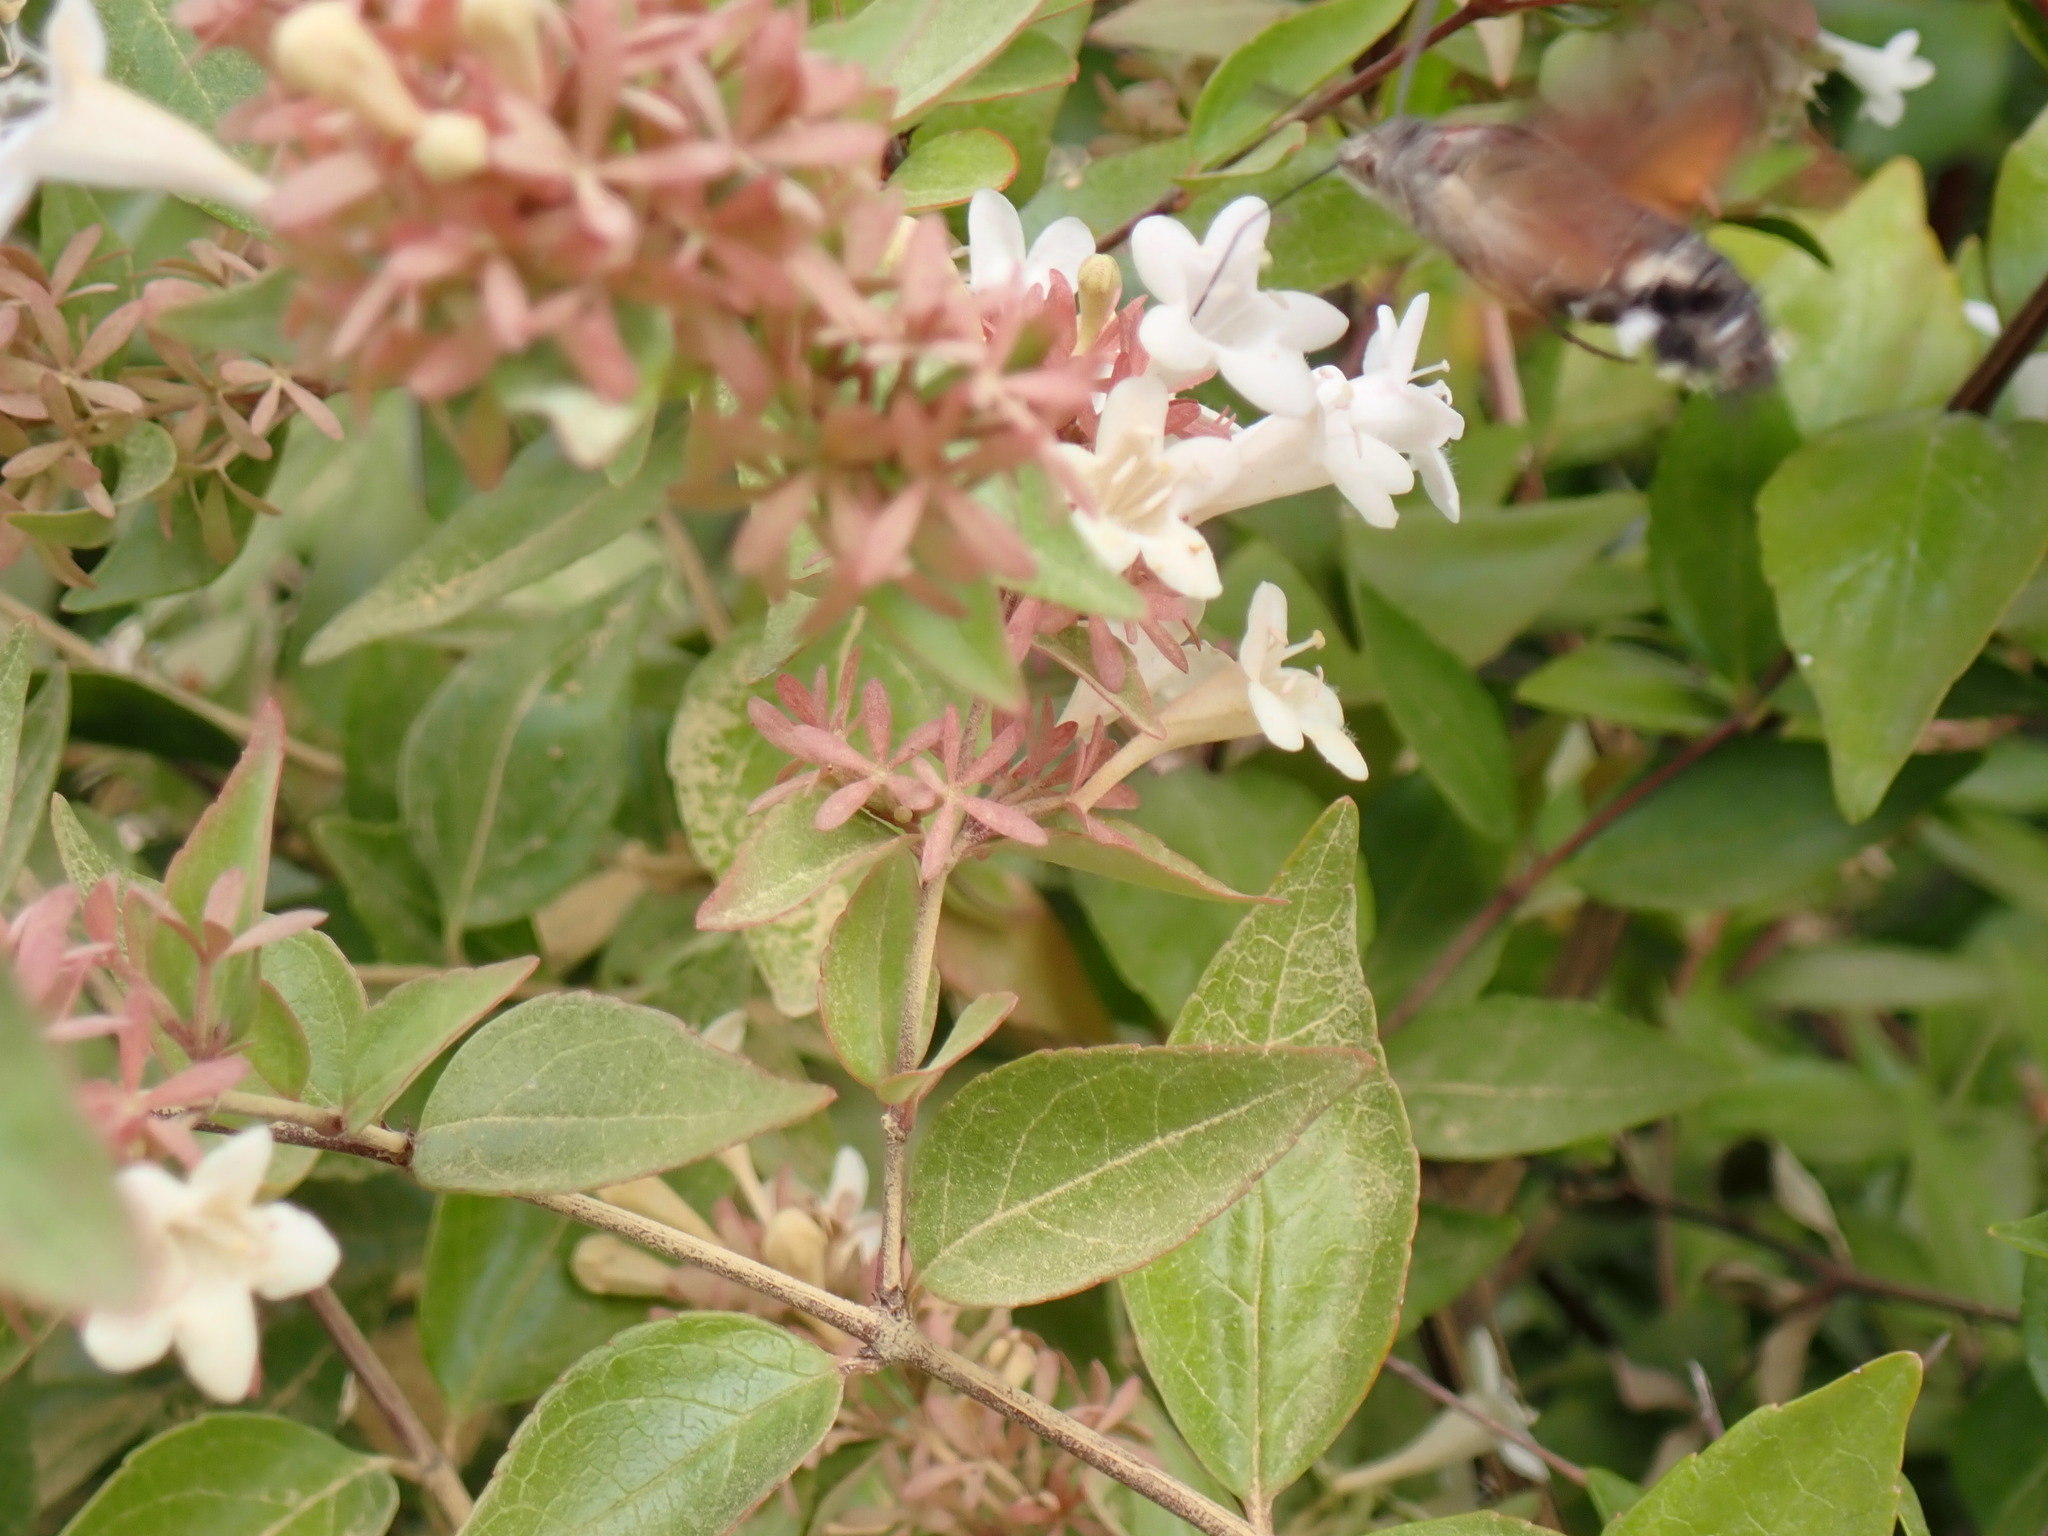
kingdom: Animalia
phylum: Arthropoda
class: Insecta
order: Lepidoptera
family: Sphingidae
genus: Macroglossum
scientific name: Macroglossum stellatarum
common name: Humming-bird hawk-moth
